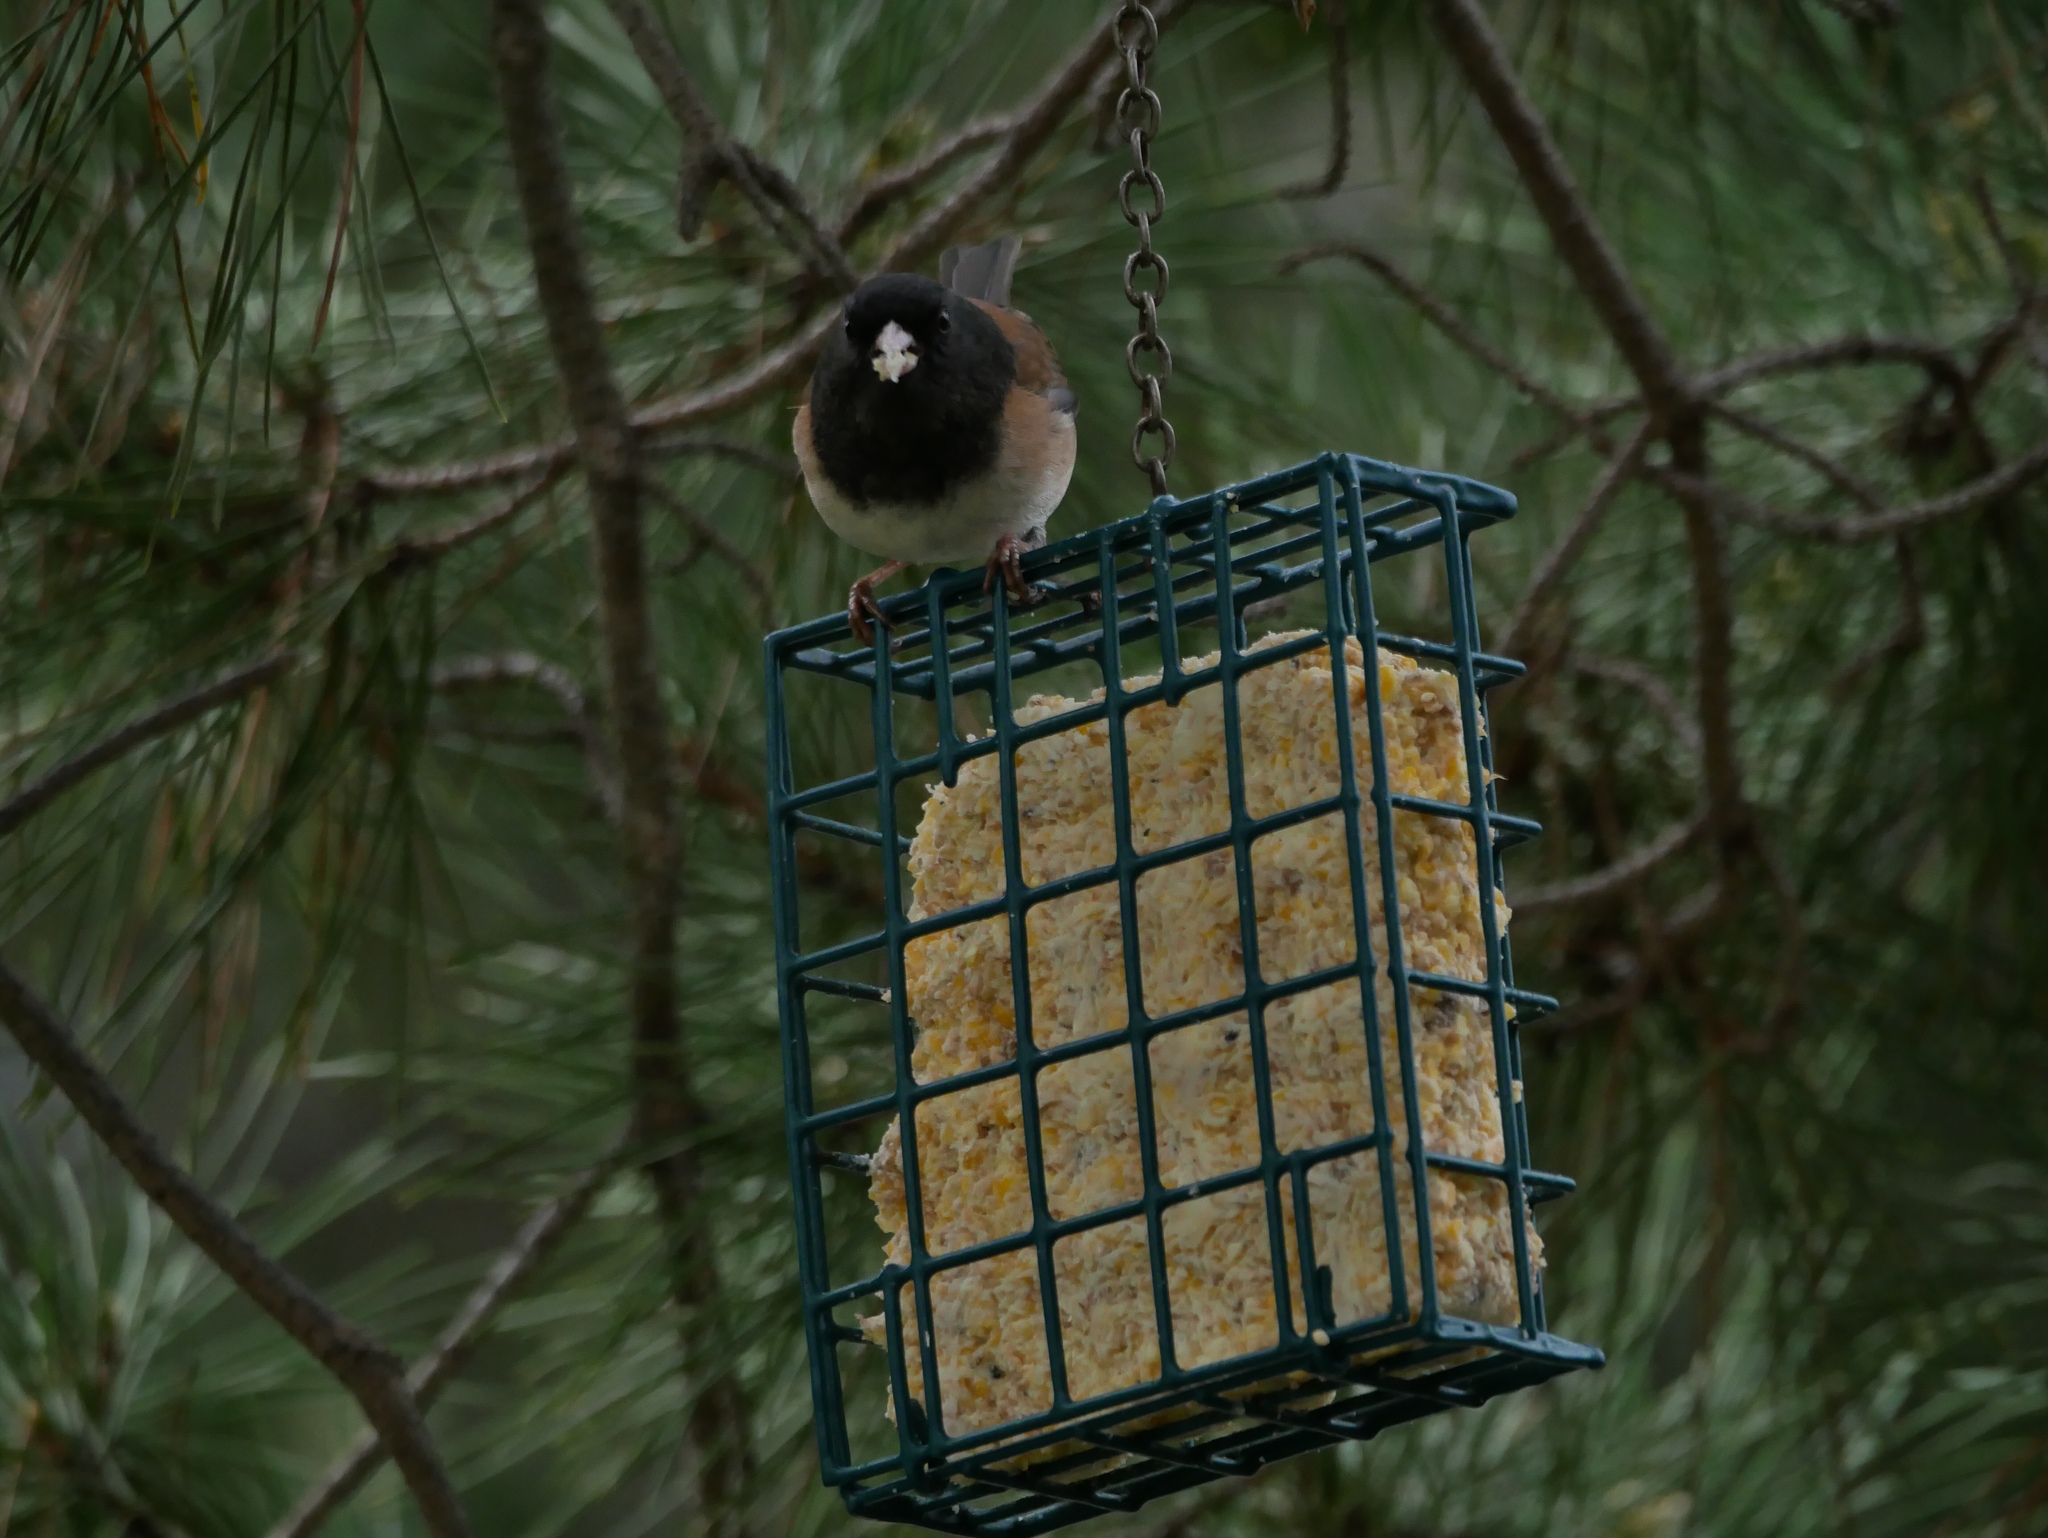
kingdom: Animalia
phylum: Chordata
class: Aves
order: Passeriformes
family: Passerellidae
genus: Junco
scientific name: Junco hyemalis
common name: Dark-eyed junco
